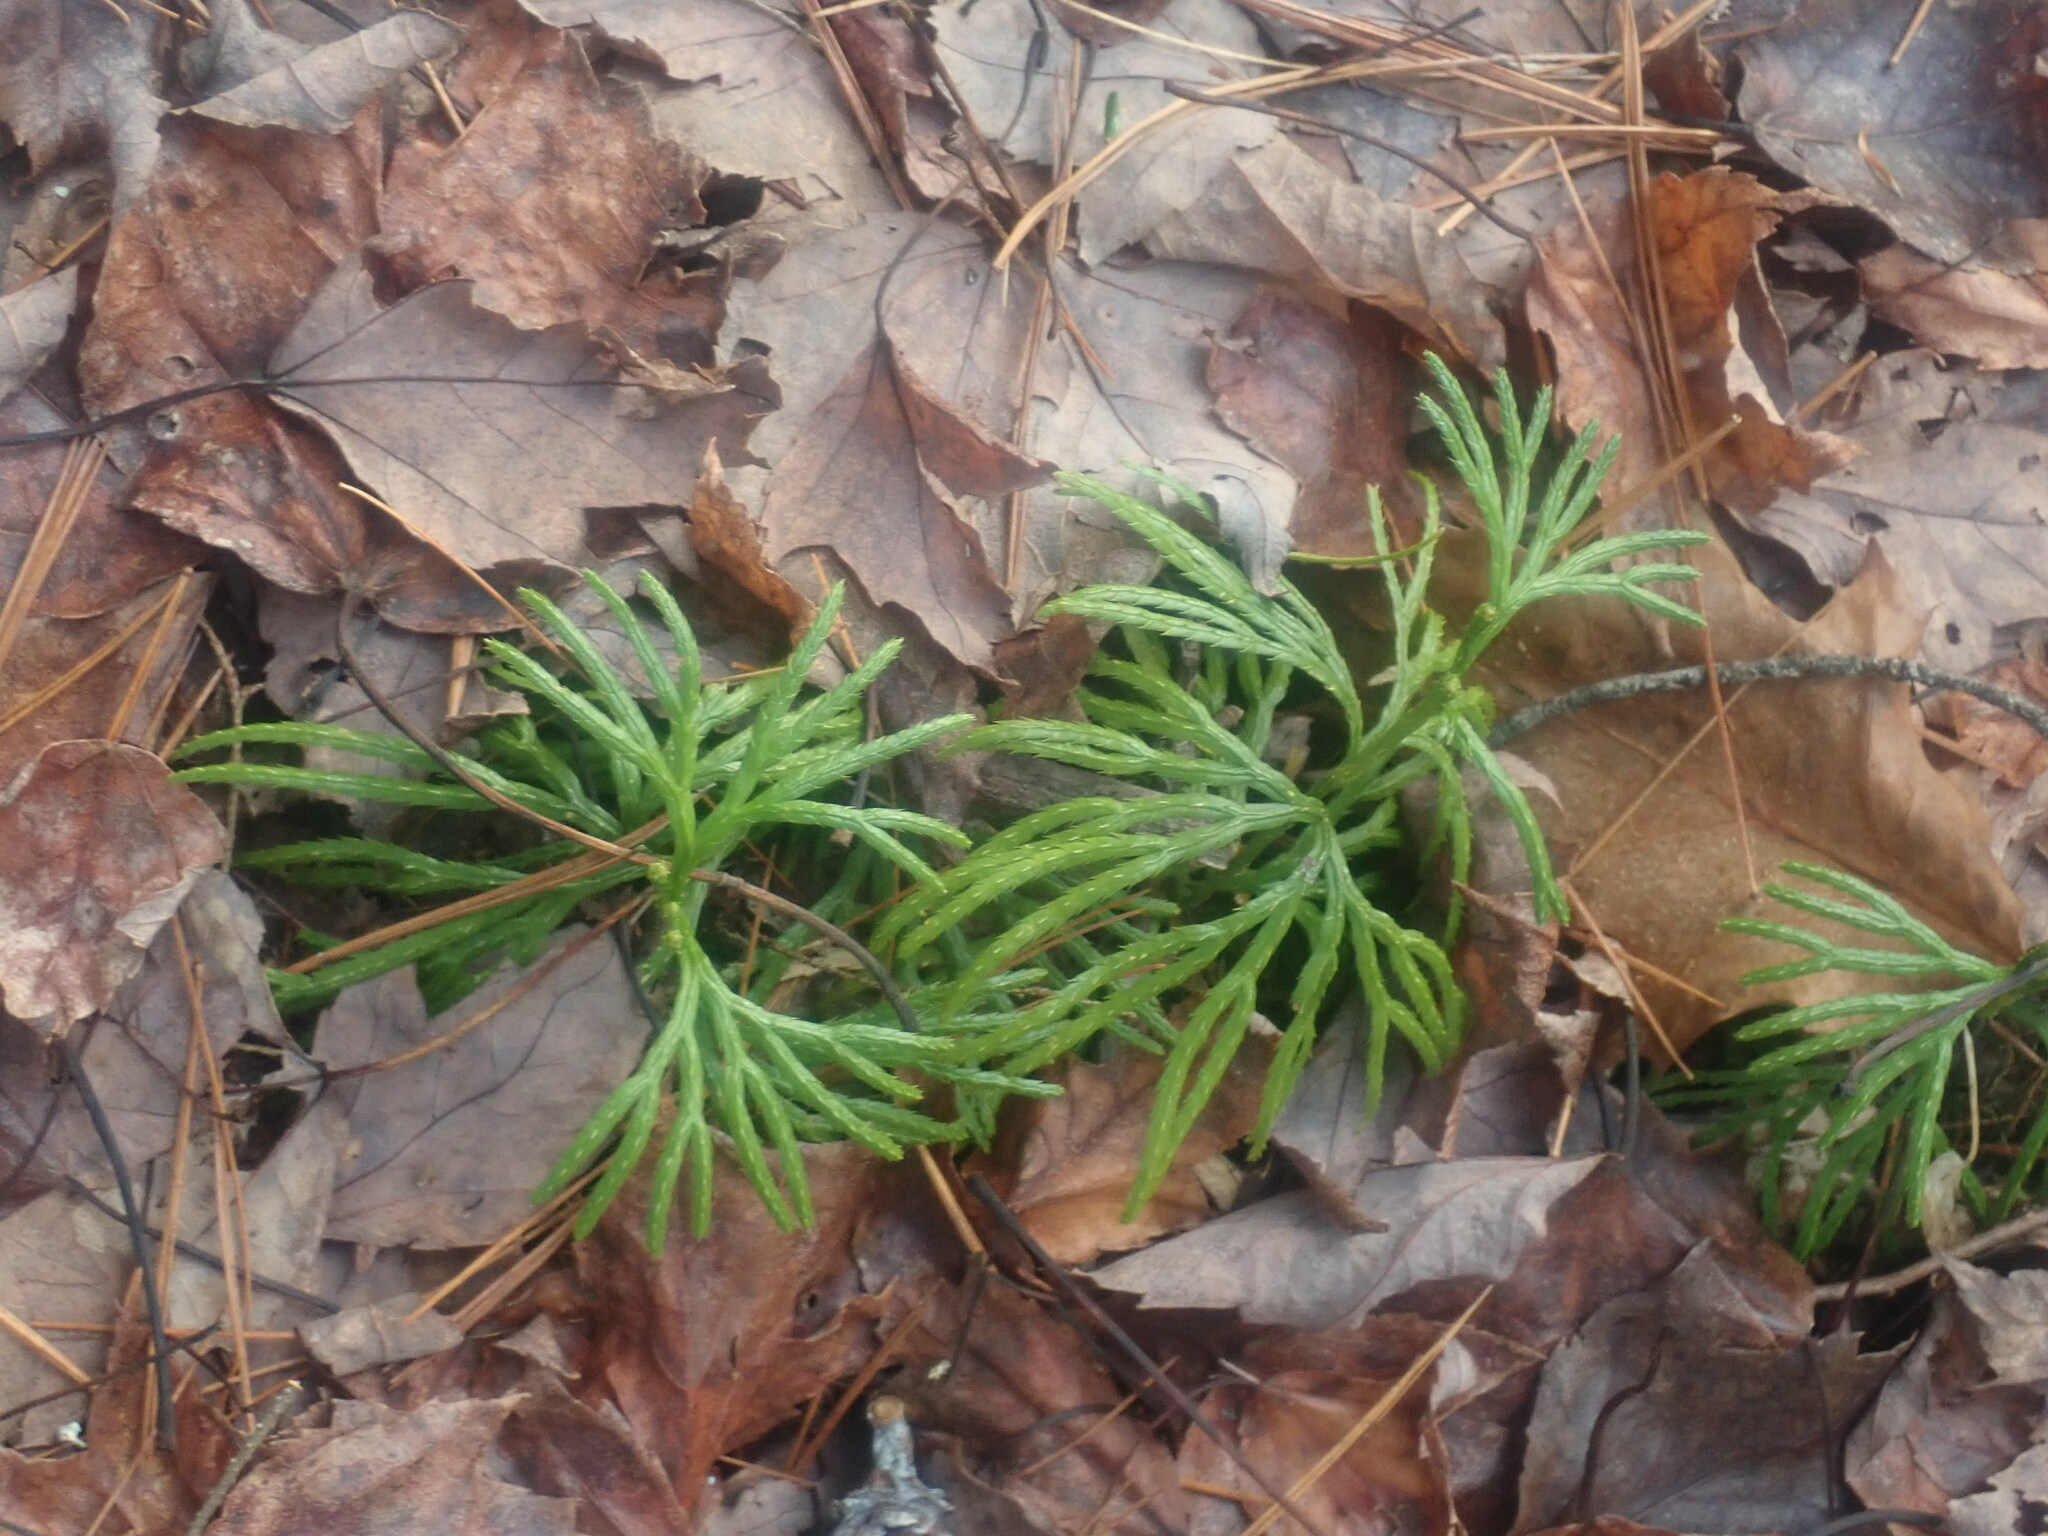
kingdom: Plantae
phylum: Tracheophyta
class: Lycopodiopsida
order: Lycopodiales
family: Lycopodiaceae
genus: Diphasiastrum
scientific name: Diphasiastrum digitatum
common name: Southern running-pine
